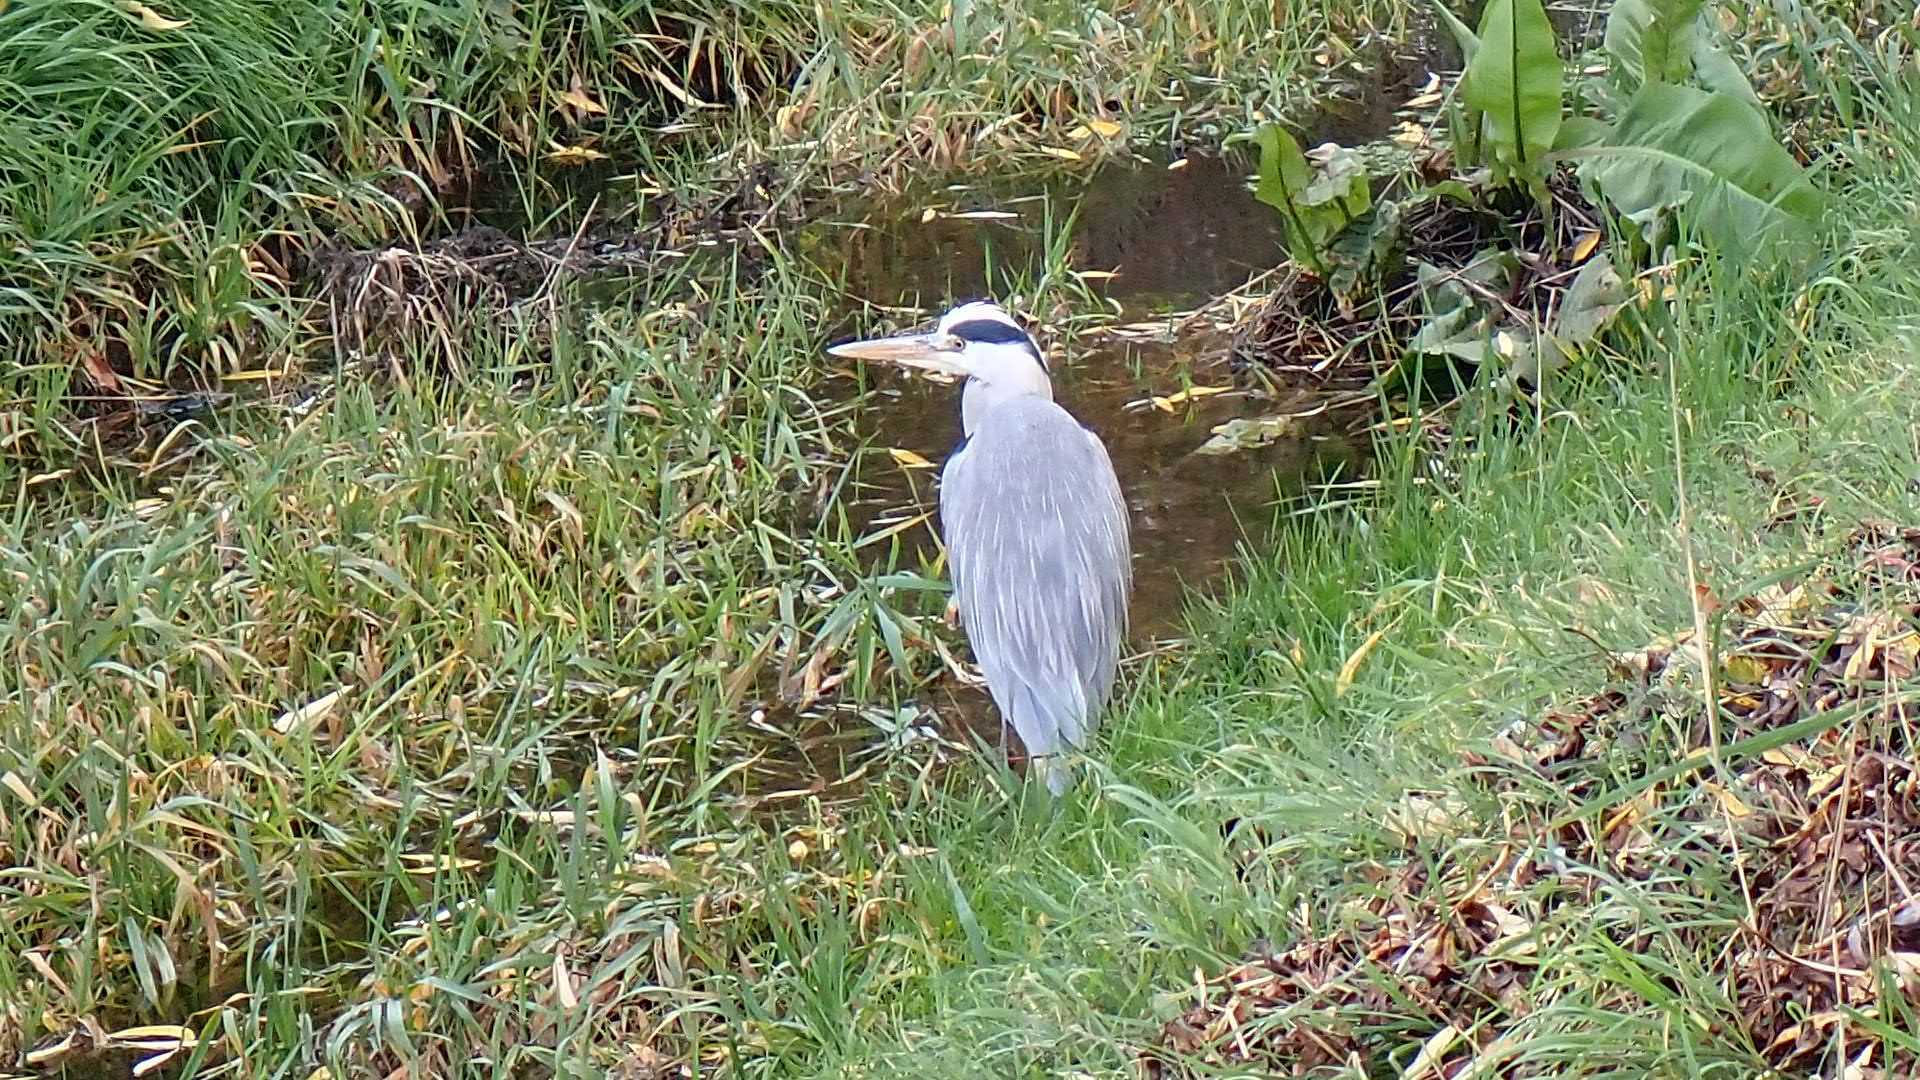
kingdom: Animalia
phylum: Chordata
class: Aves
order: Pelecaniformes
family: Ardeidae
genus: Ardea
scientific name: Ardea cinerea
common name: Grey heron
